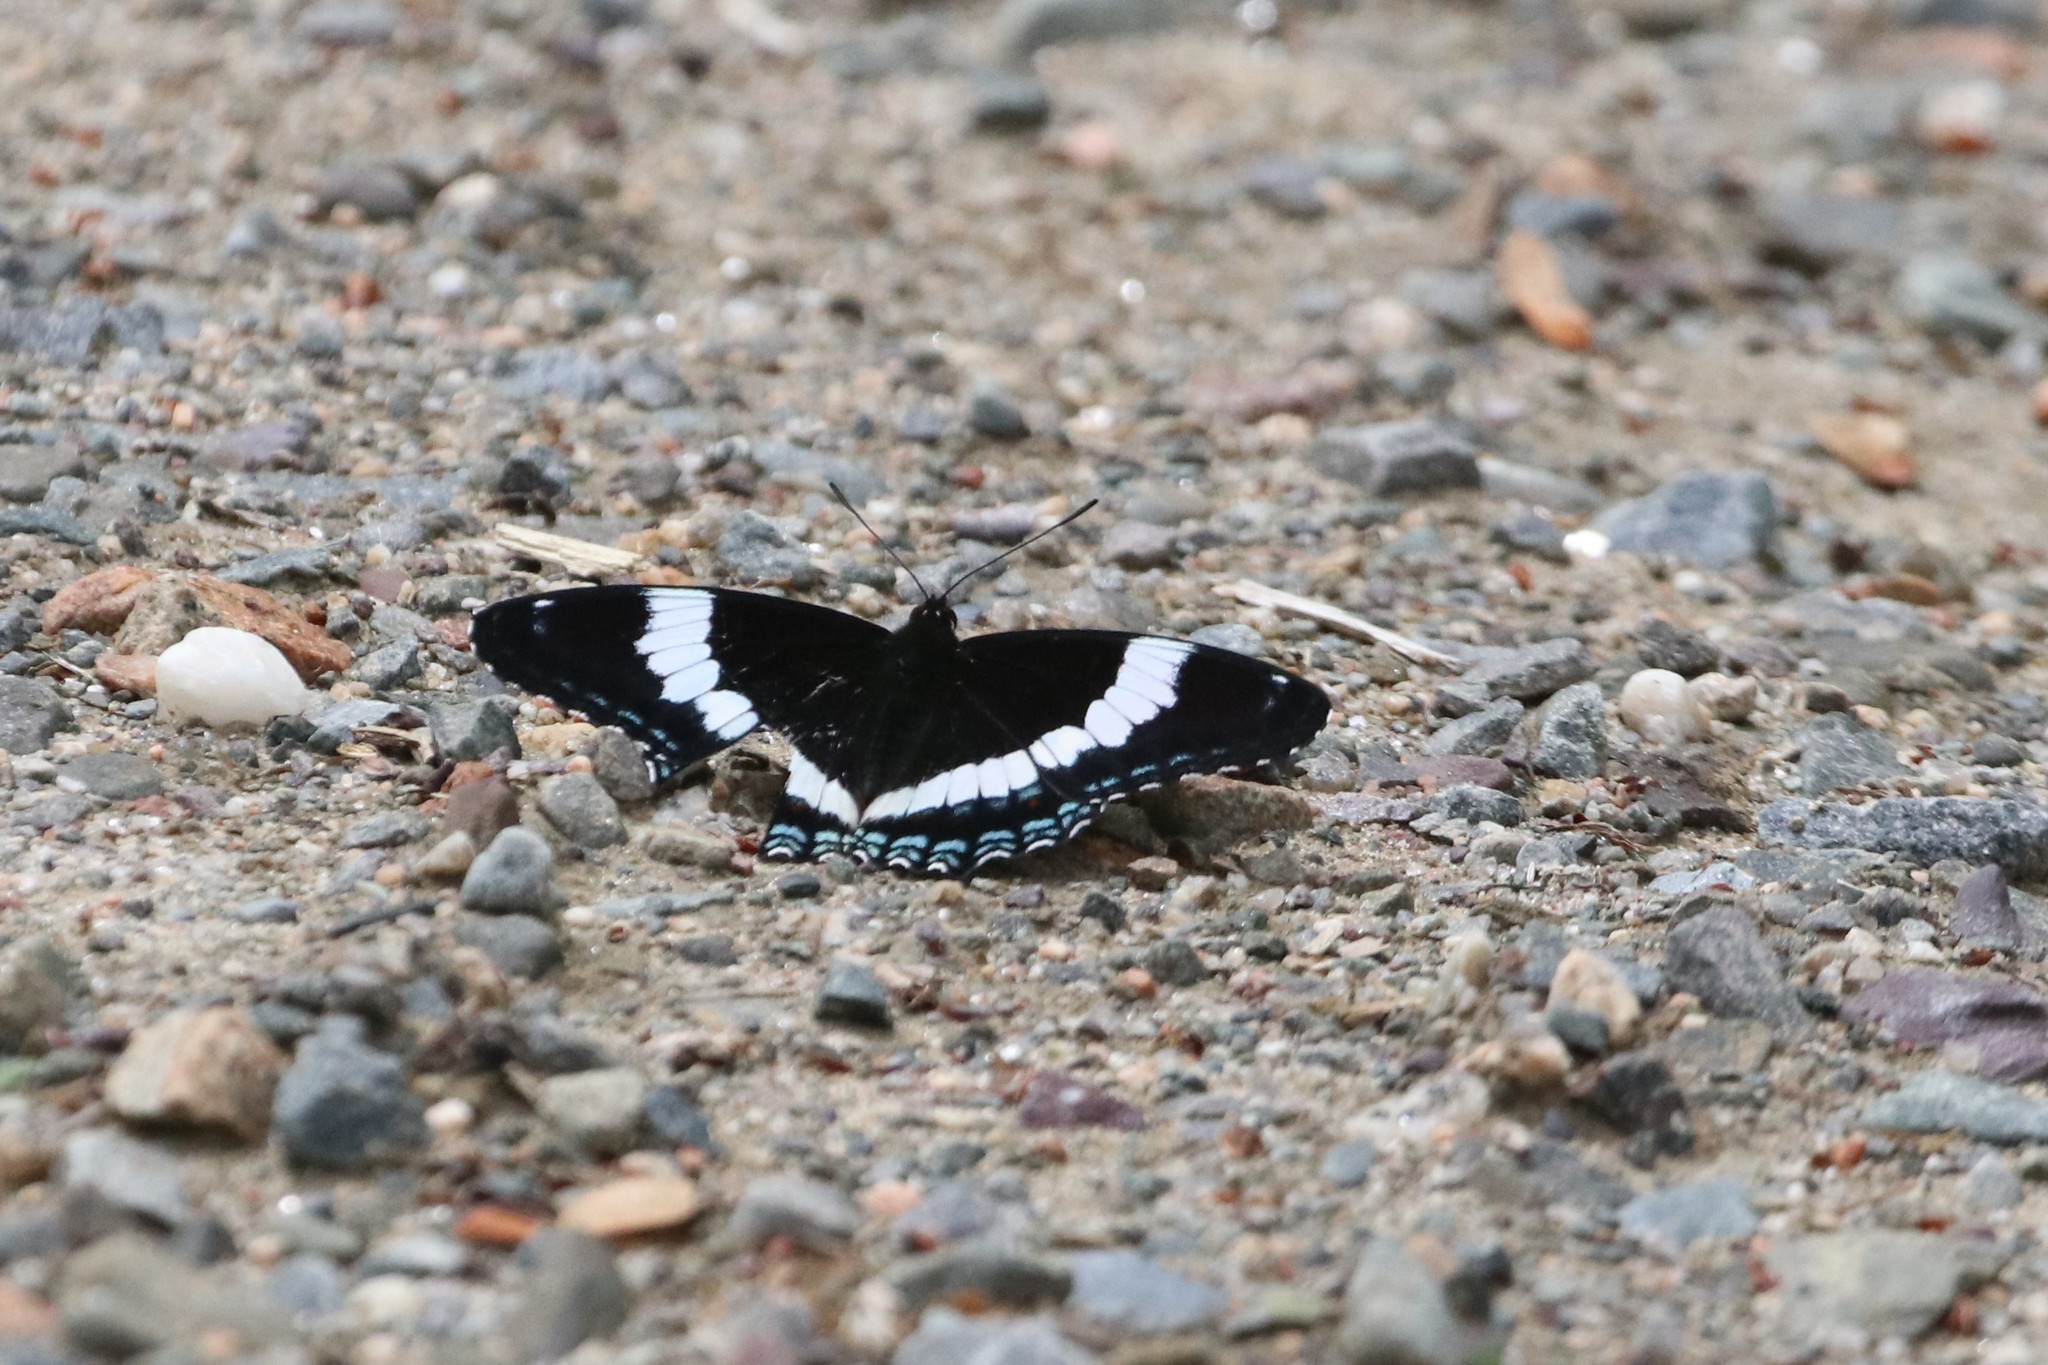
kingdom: Animalia
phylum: Arthropoda
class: Insecta
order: Lepidoptera
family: Nymphalidae
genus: Limenitis
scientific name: Limenitis arthemis
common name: Red-spotted admiral
